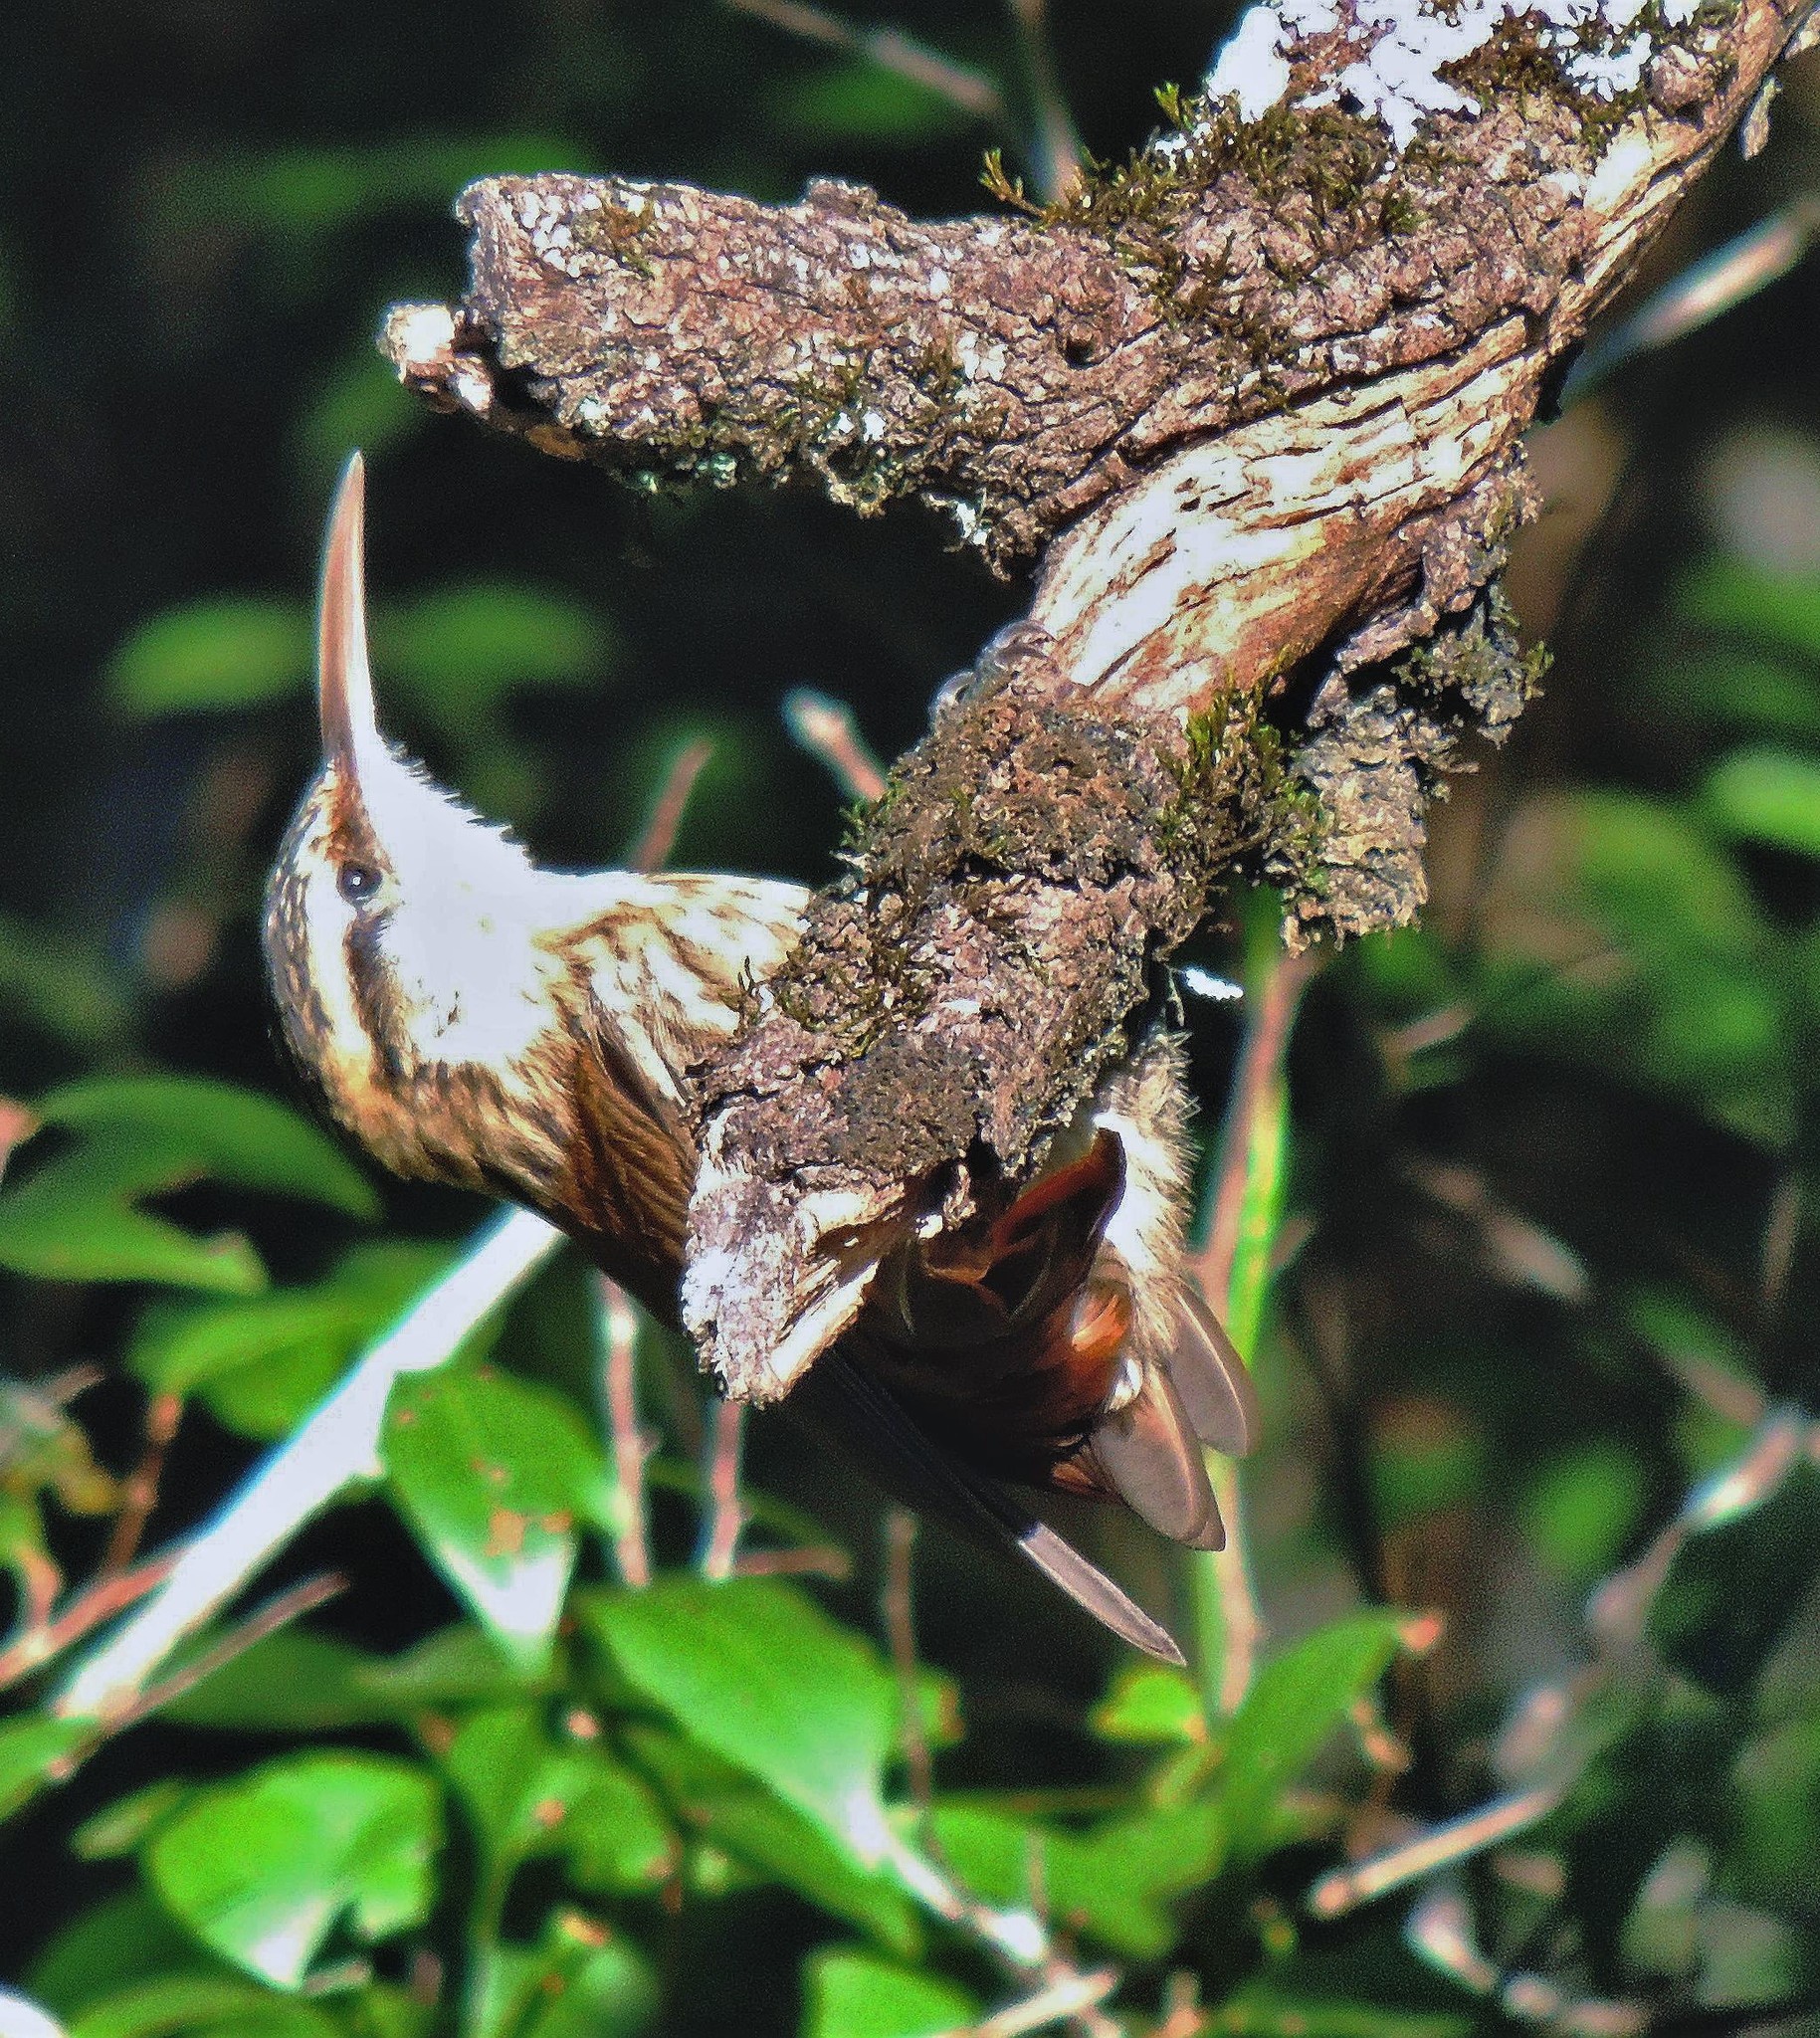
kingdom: Animalia
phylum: Chordata
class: Aves
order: Passeriformes
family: Furnariidae
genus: Lepidocolaptes
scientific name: Lepidocolaptes angustirostris
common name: Narrow-billed woodcreeper
